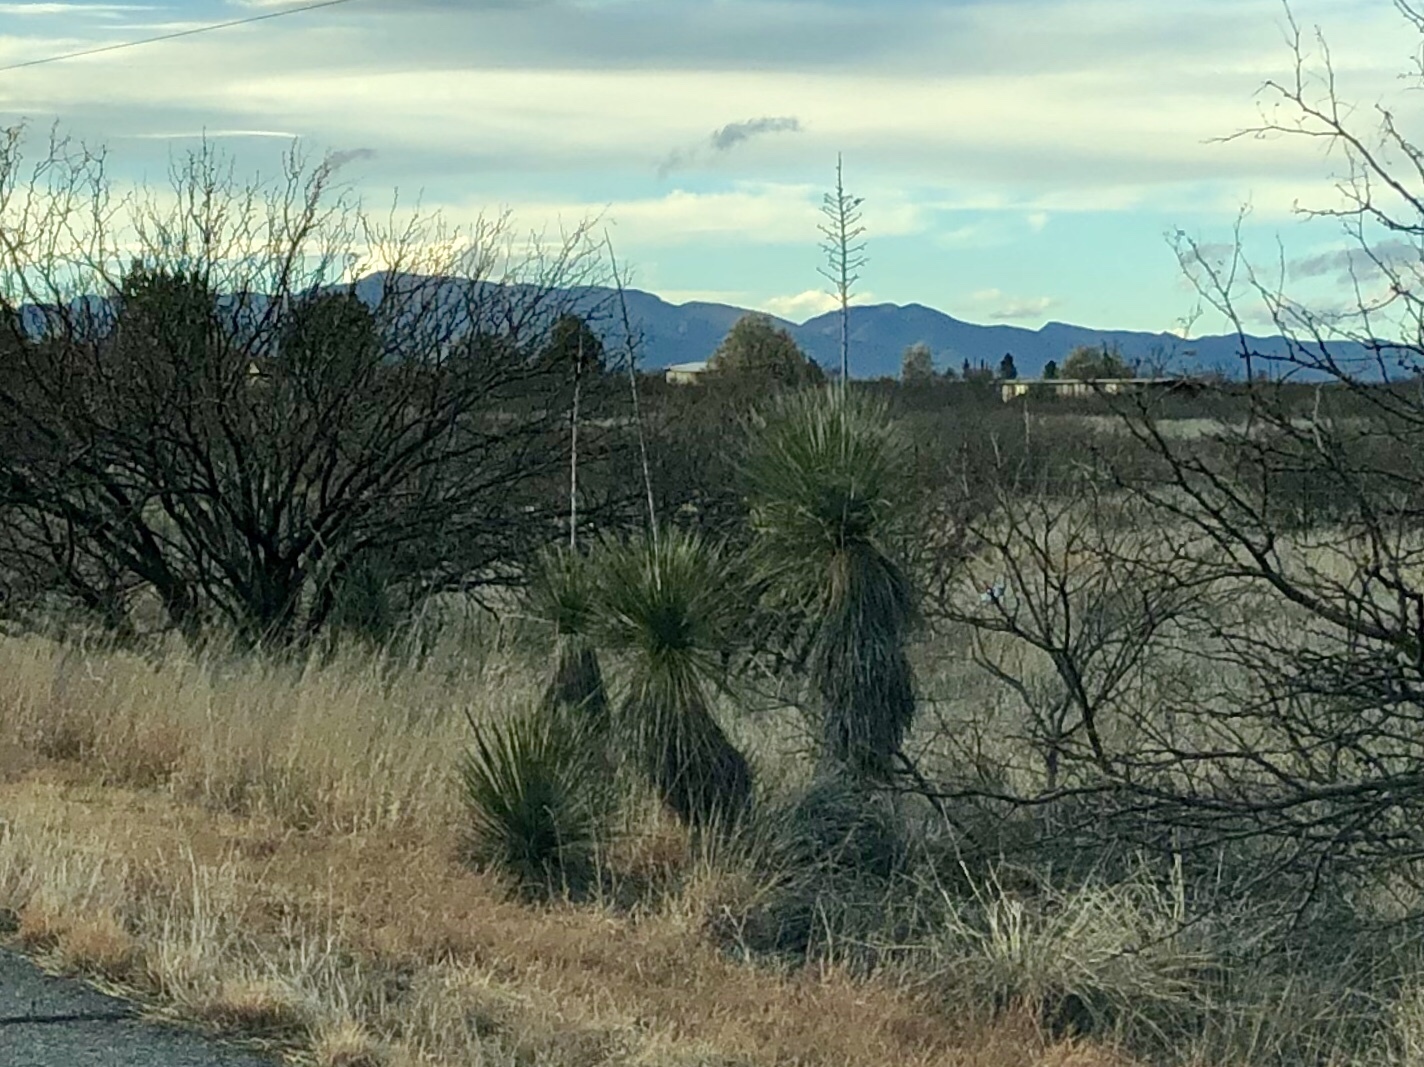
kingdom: Plantae
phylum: Tracheophyta
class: Liliopsida
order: Asparagales
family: Asparagaceae
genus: Yucca
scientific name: Yucca elata
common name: Palmella
